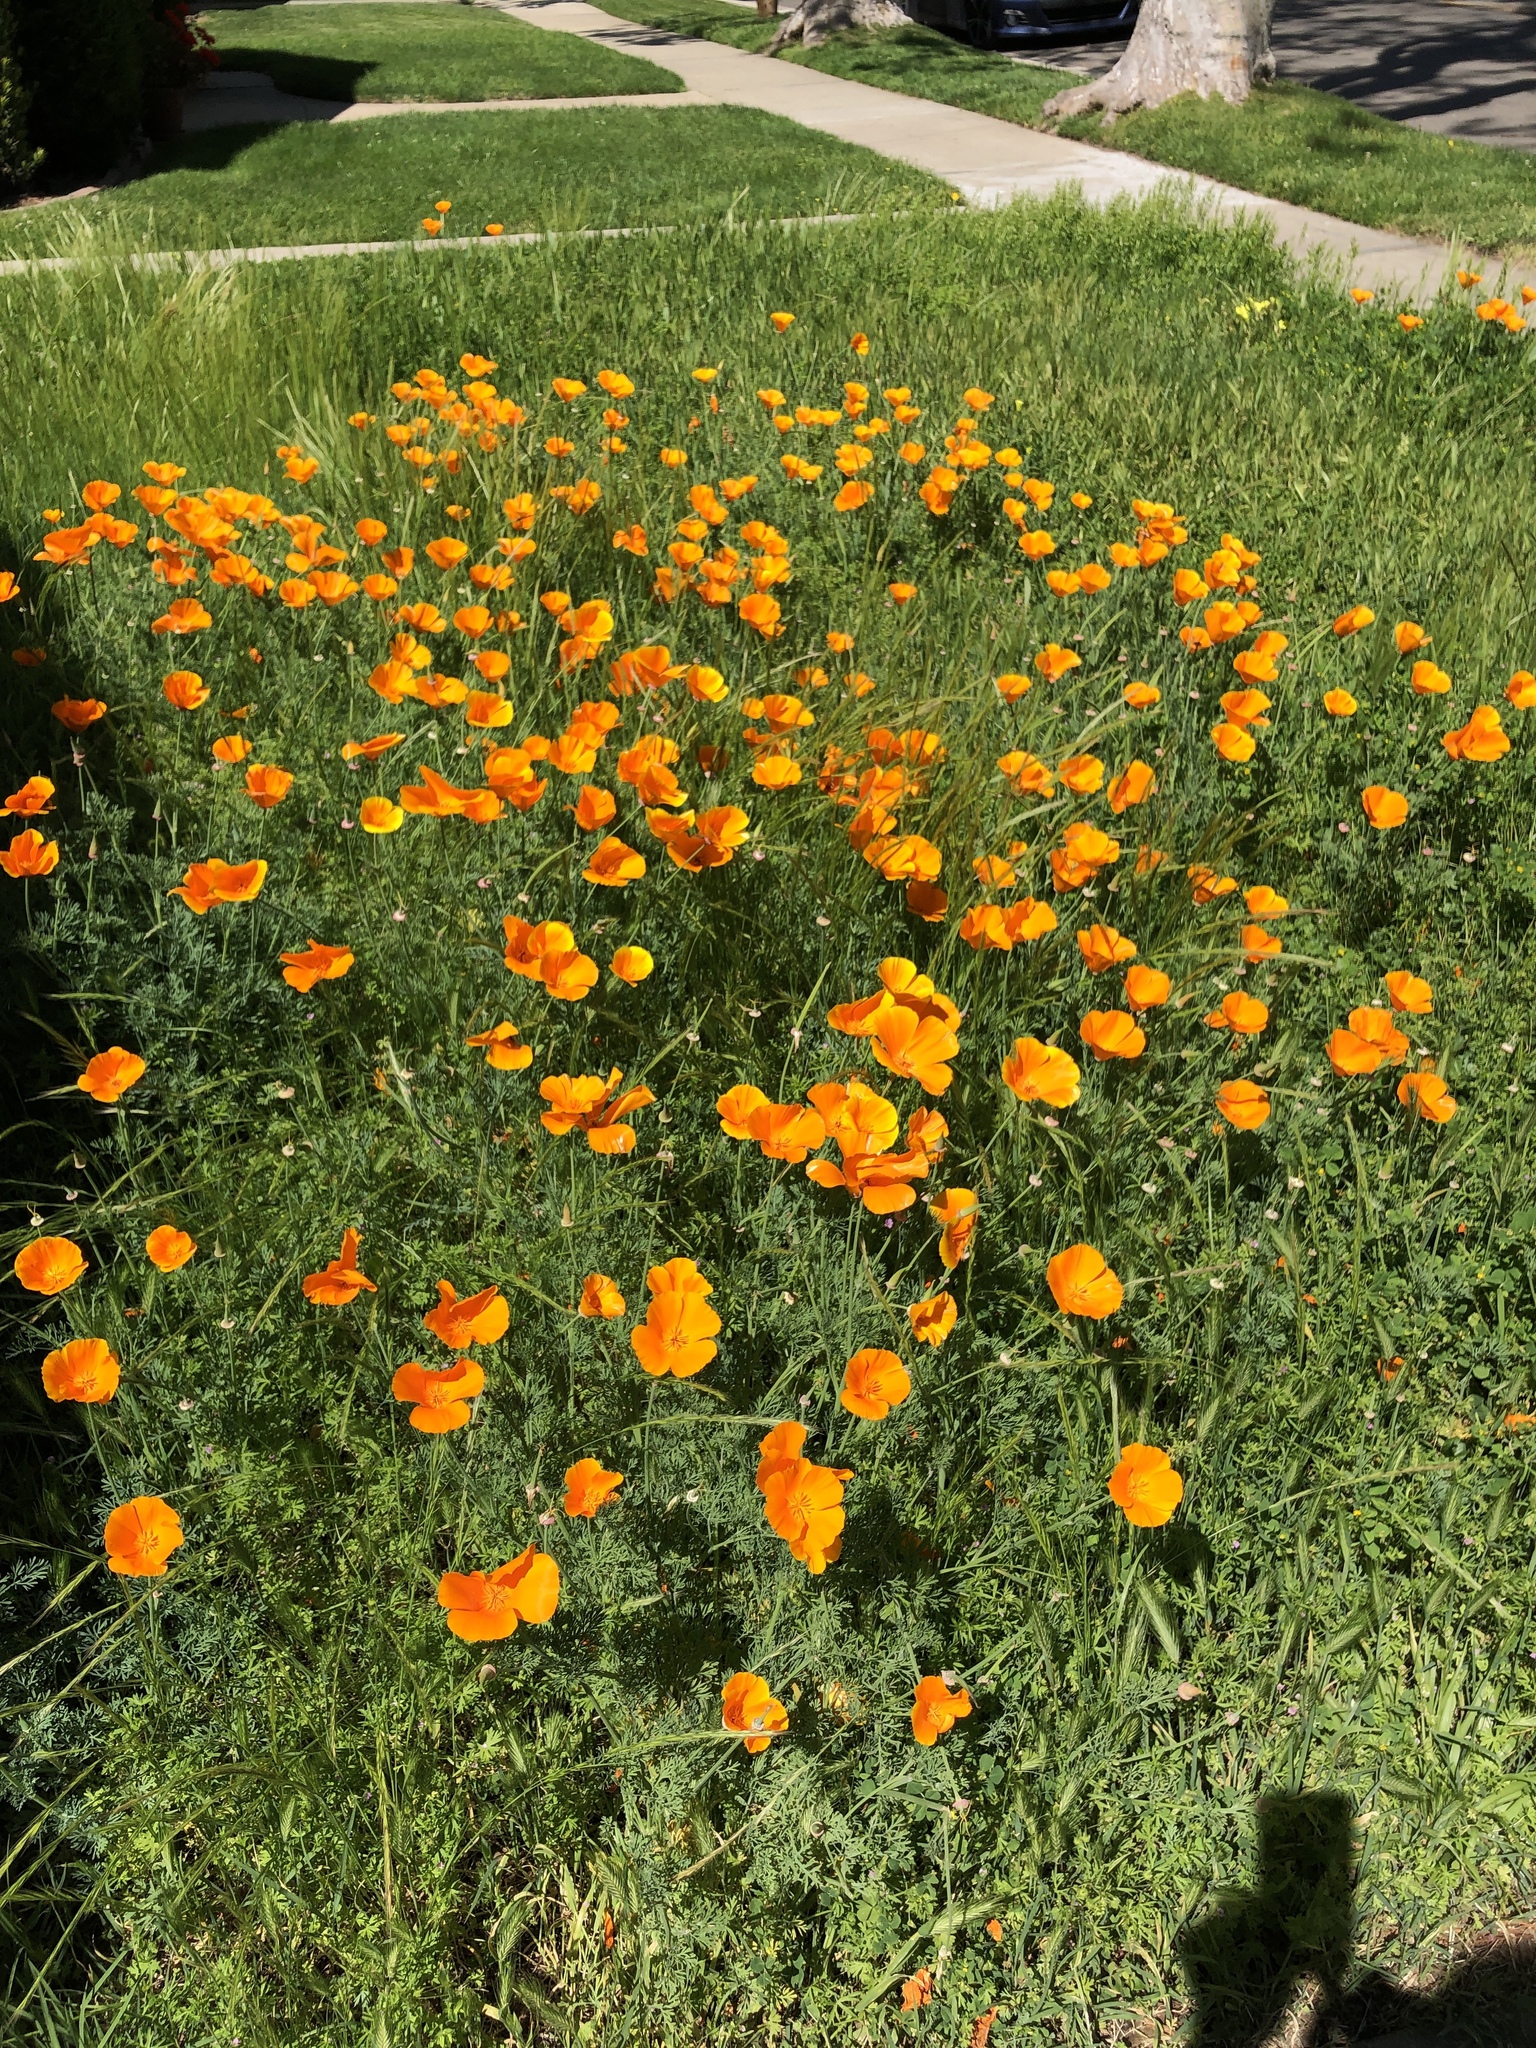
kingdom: Plantae
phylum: Tracheophyta
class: Magnoliopsida
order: Ranunculales
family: Papaveraceae
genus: Eschscholzia
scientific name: Eschscholzia californica
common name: California poppy
